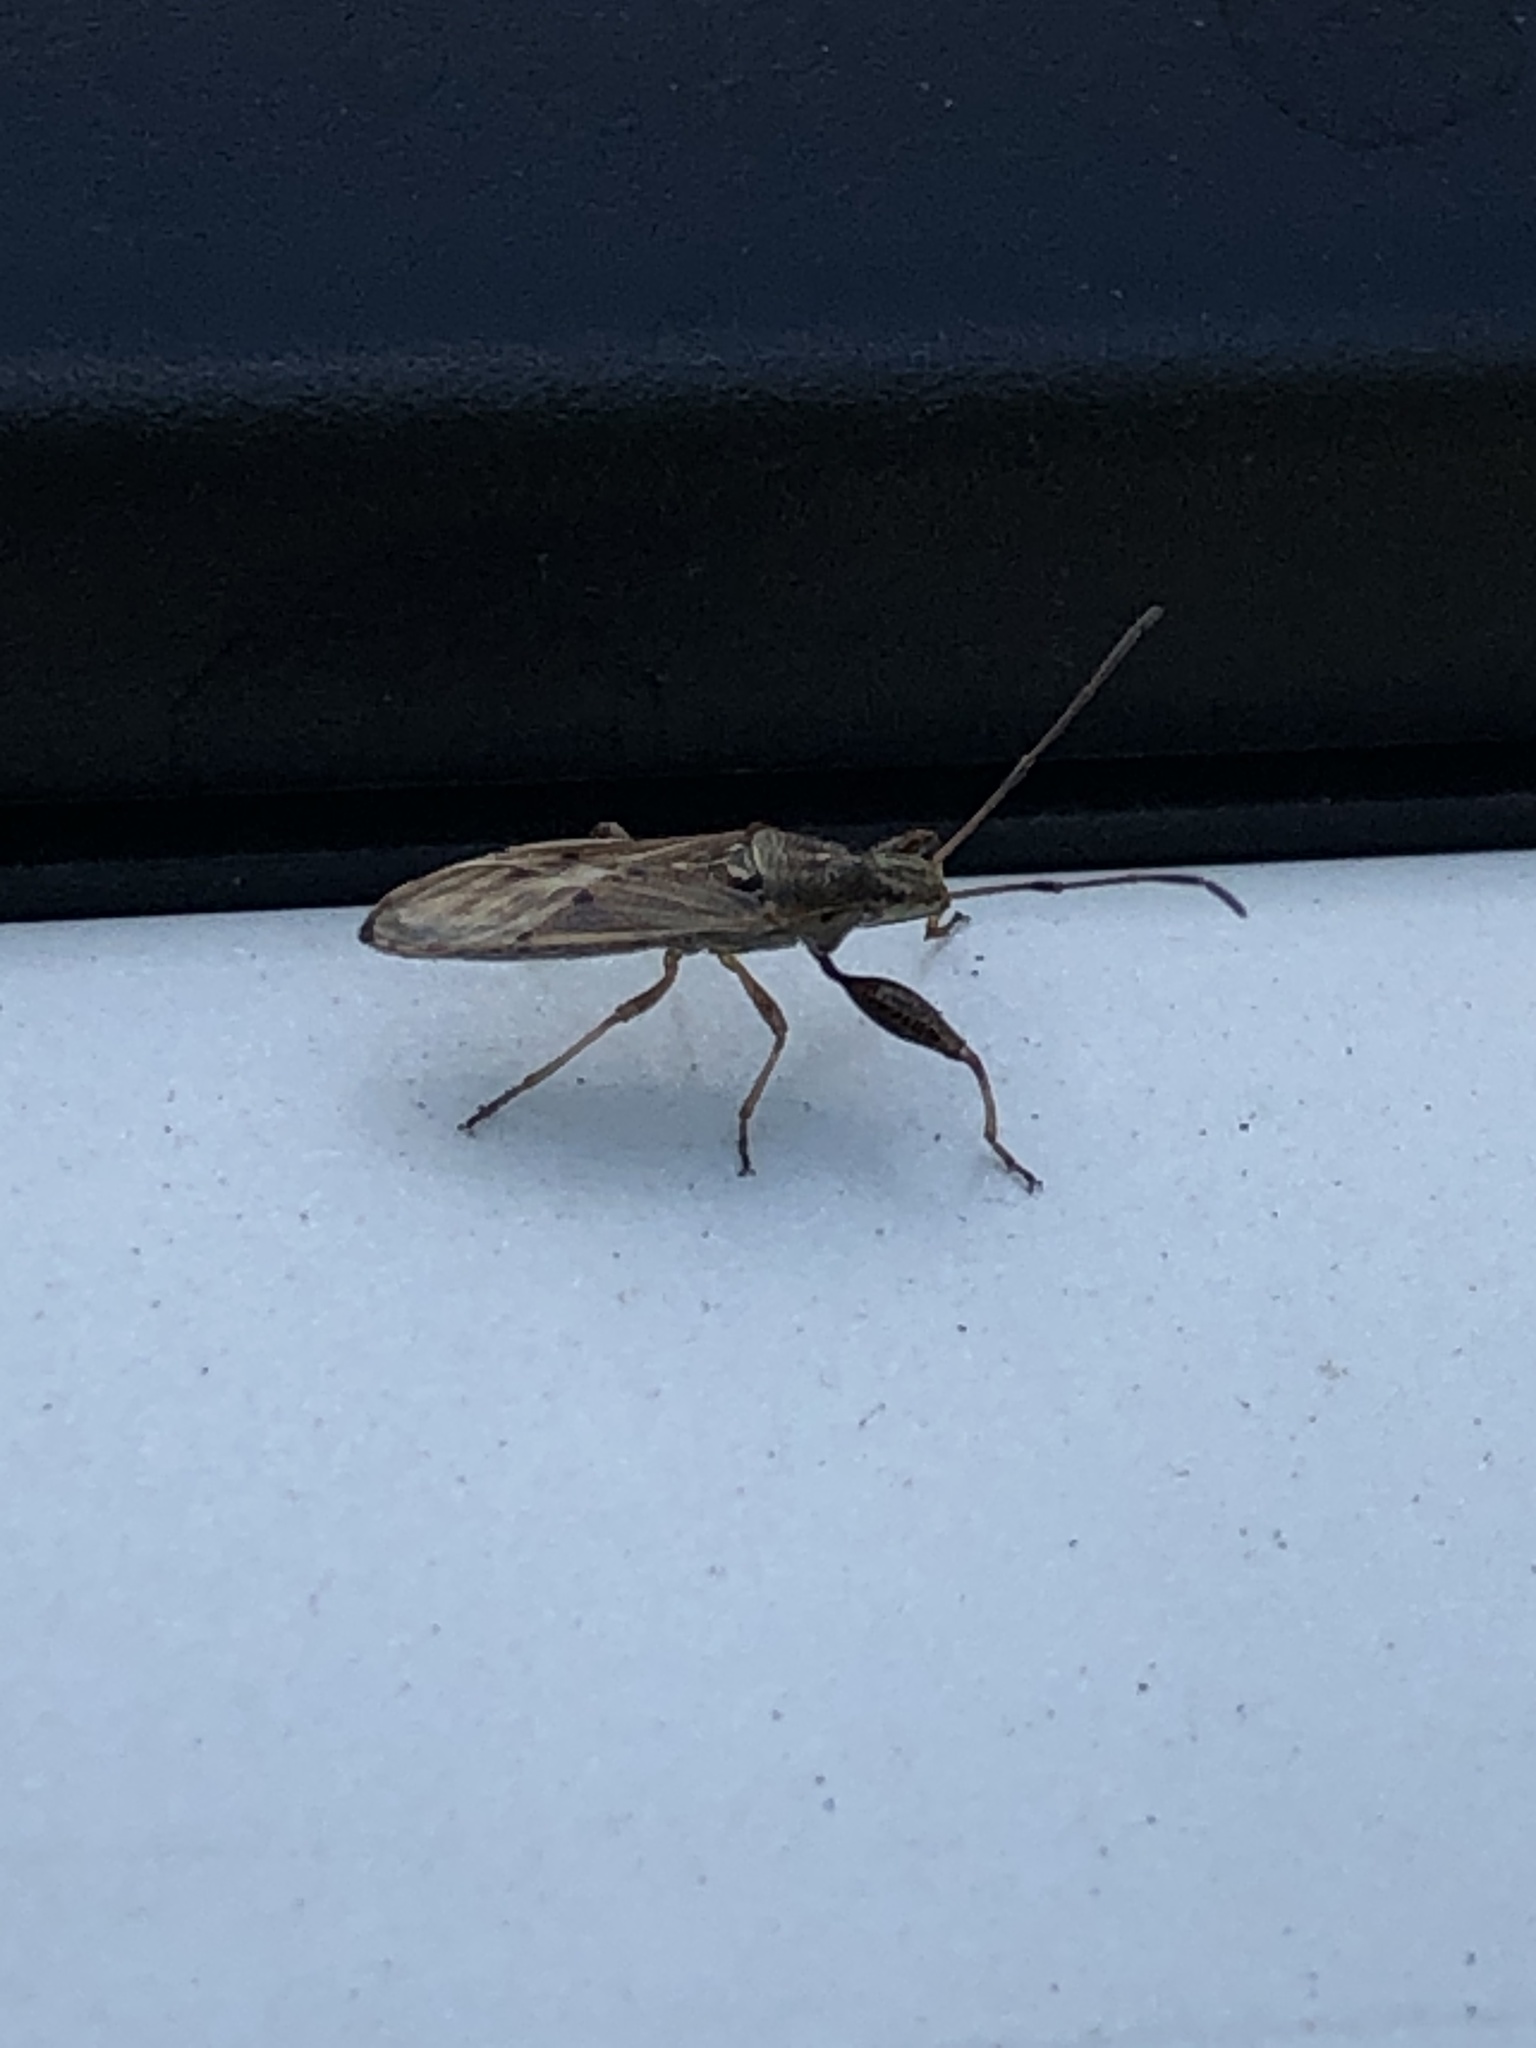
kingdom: Animalia
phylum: Arthropoda
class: Insecta
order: Hemiptera
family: Pachygronthidae
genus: Pachygrontha
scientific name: Pachygrontha antennata
